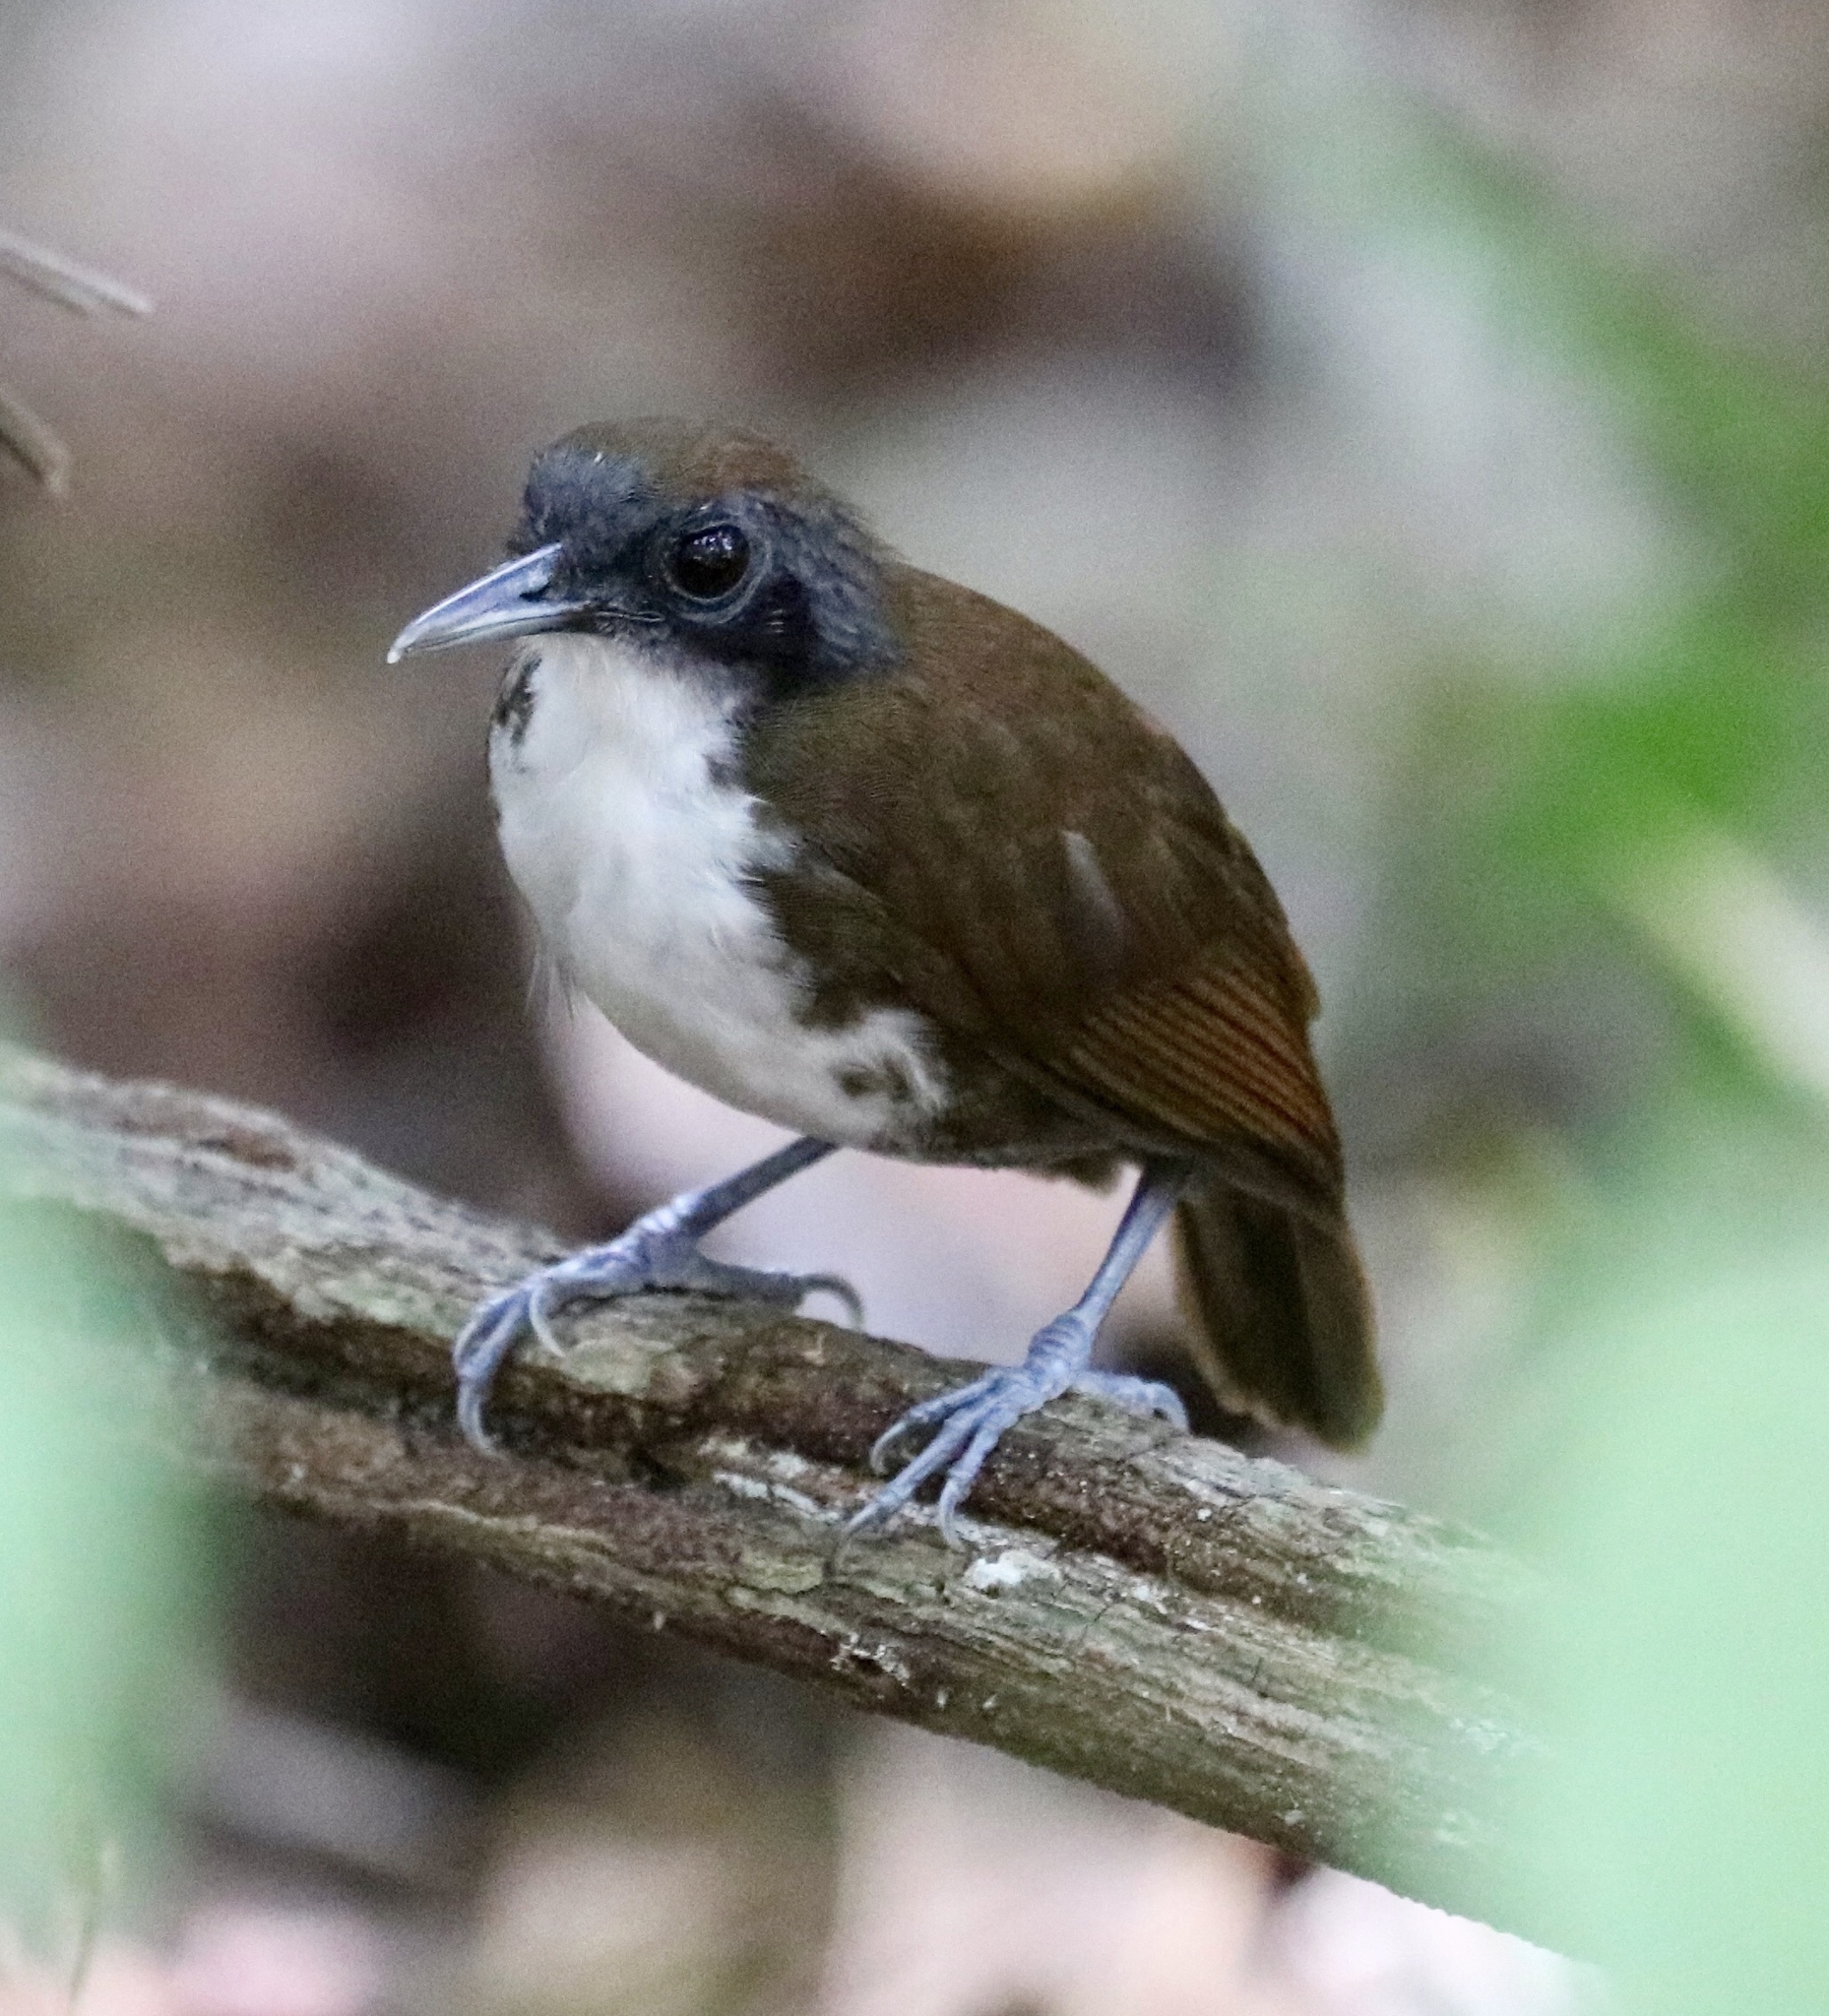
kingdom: Animalia
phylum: Chordata
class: Aves
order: Passeriformes
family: Thamnophilidae
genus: Gymnopithys
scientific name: Gymnopithys leucaspis
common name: White-cheeked antbird
